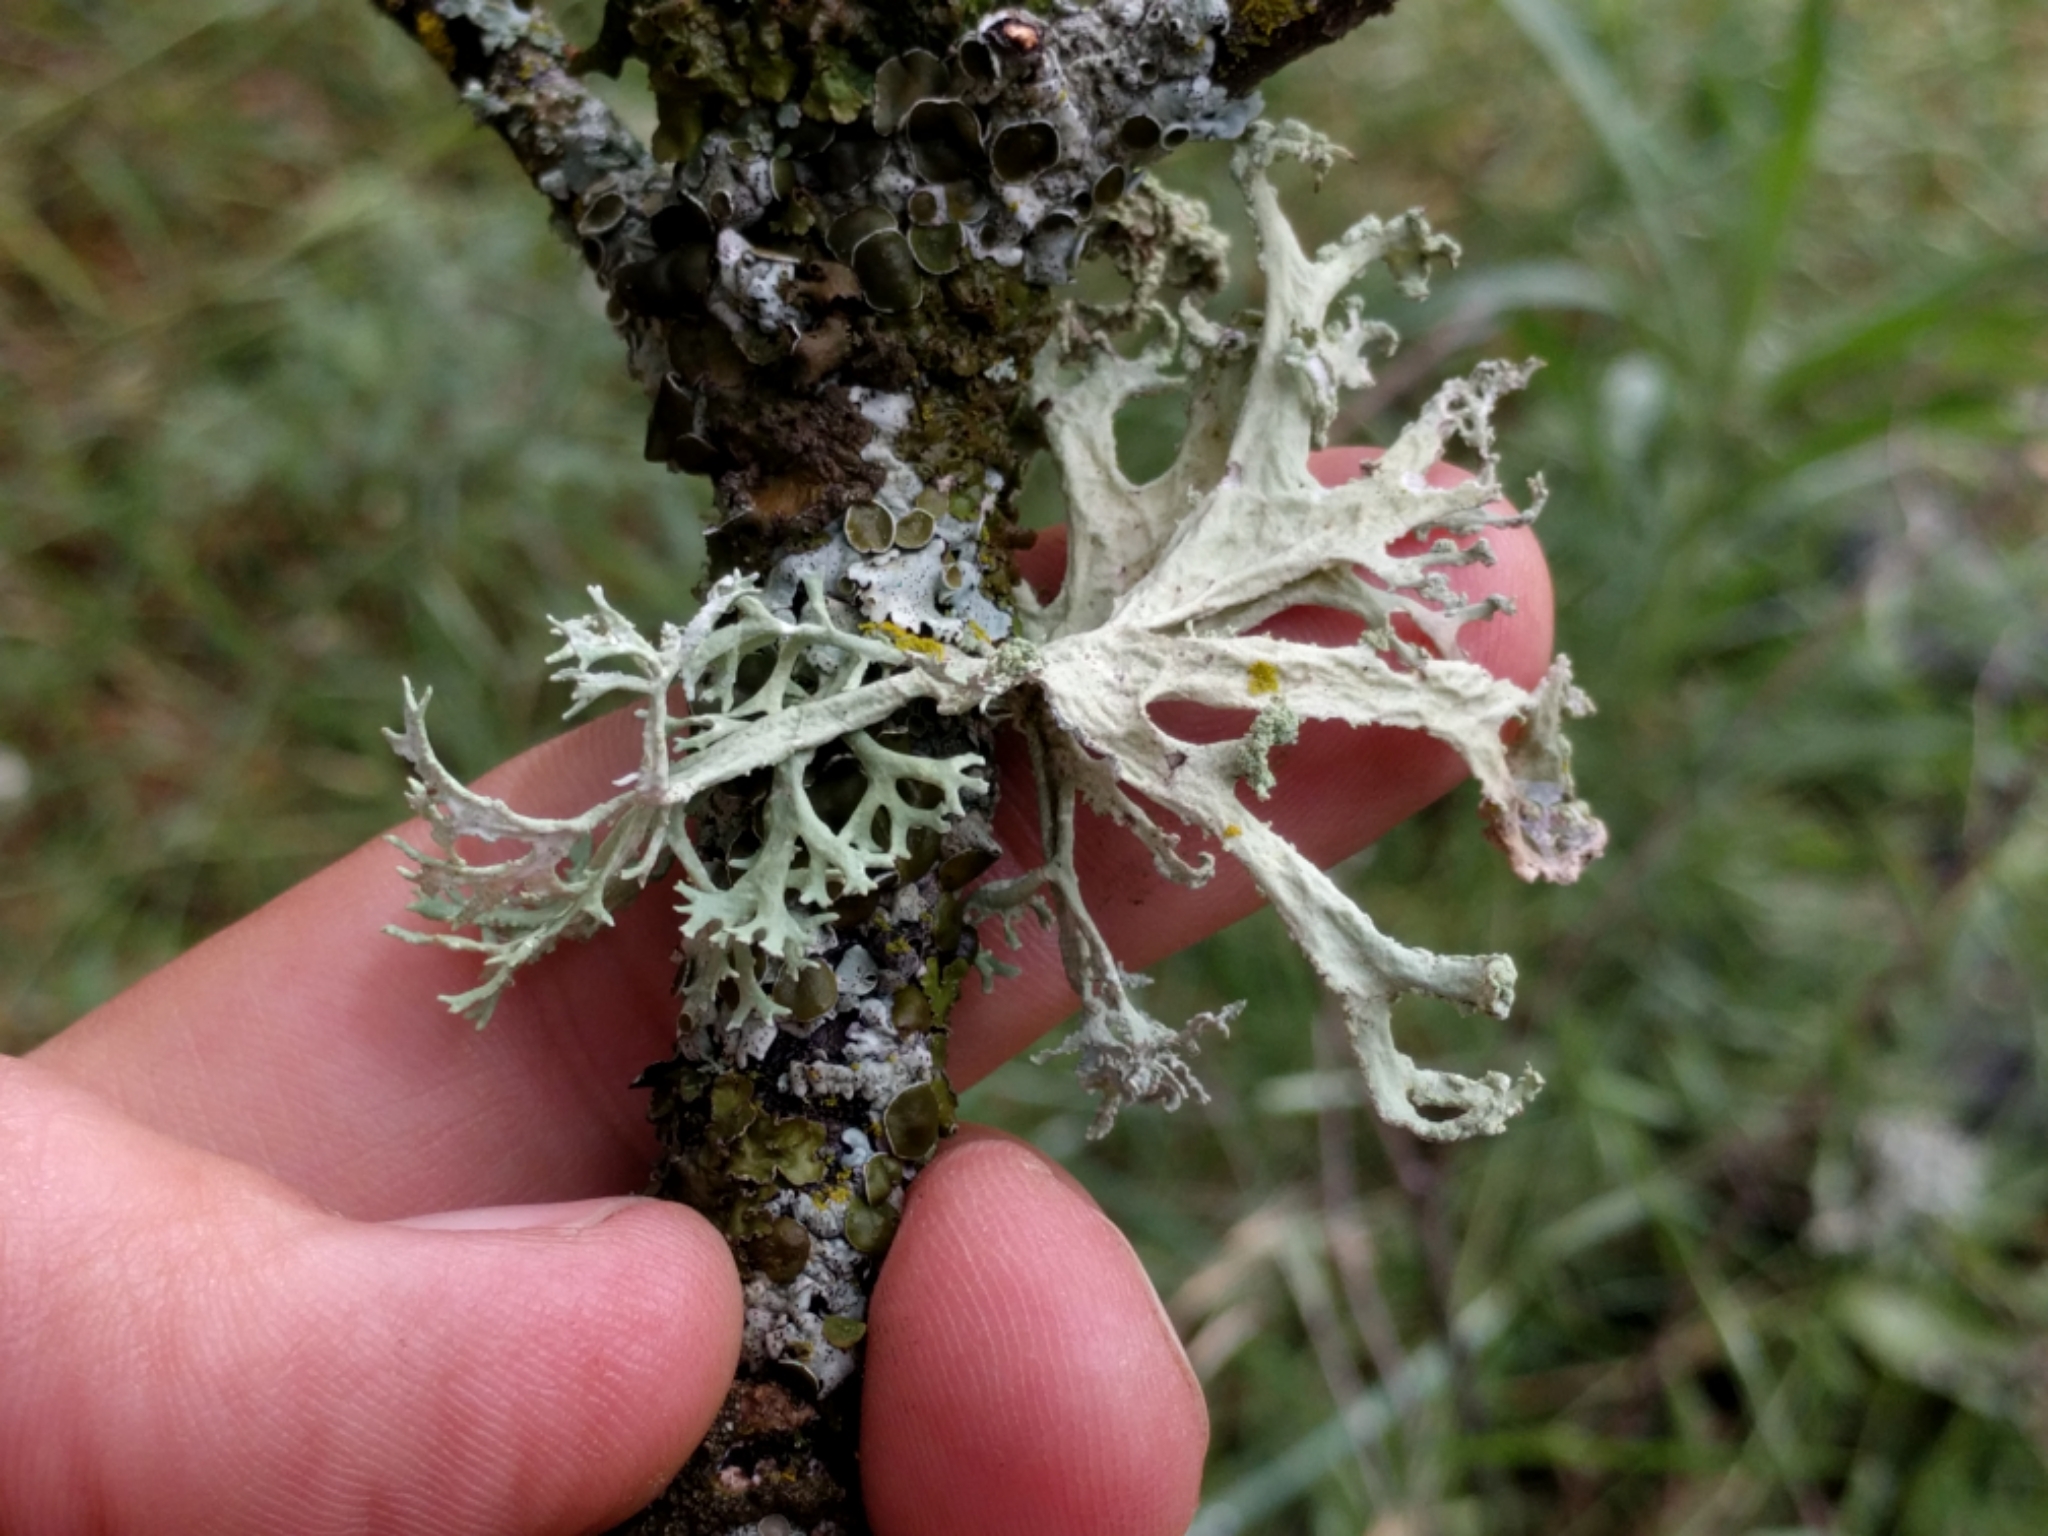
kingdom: Fungi
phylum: Ascomycota
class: Lecanoromycetes
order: Lecanorales
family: Parmeliaceae
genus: Evernia
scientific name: Evernia prunastri
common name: Oak moss
